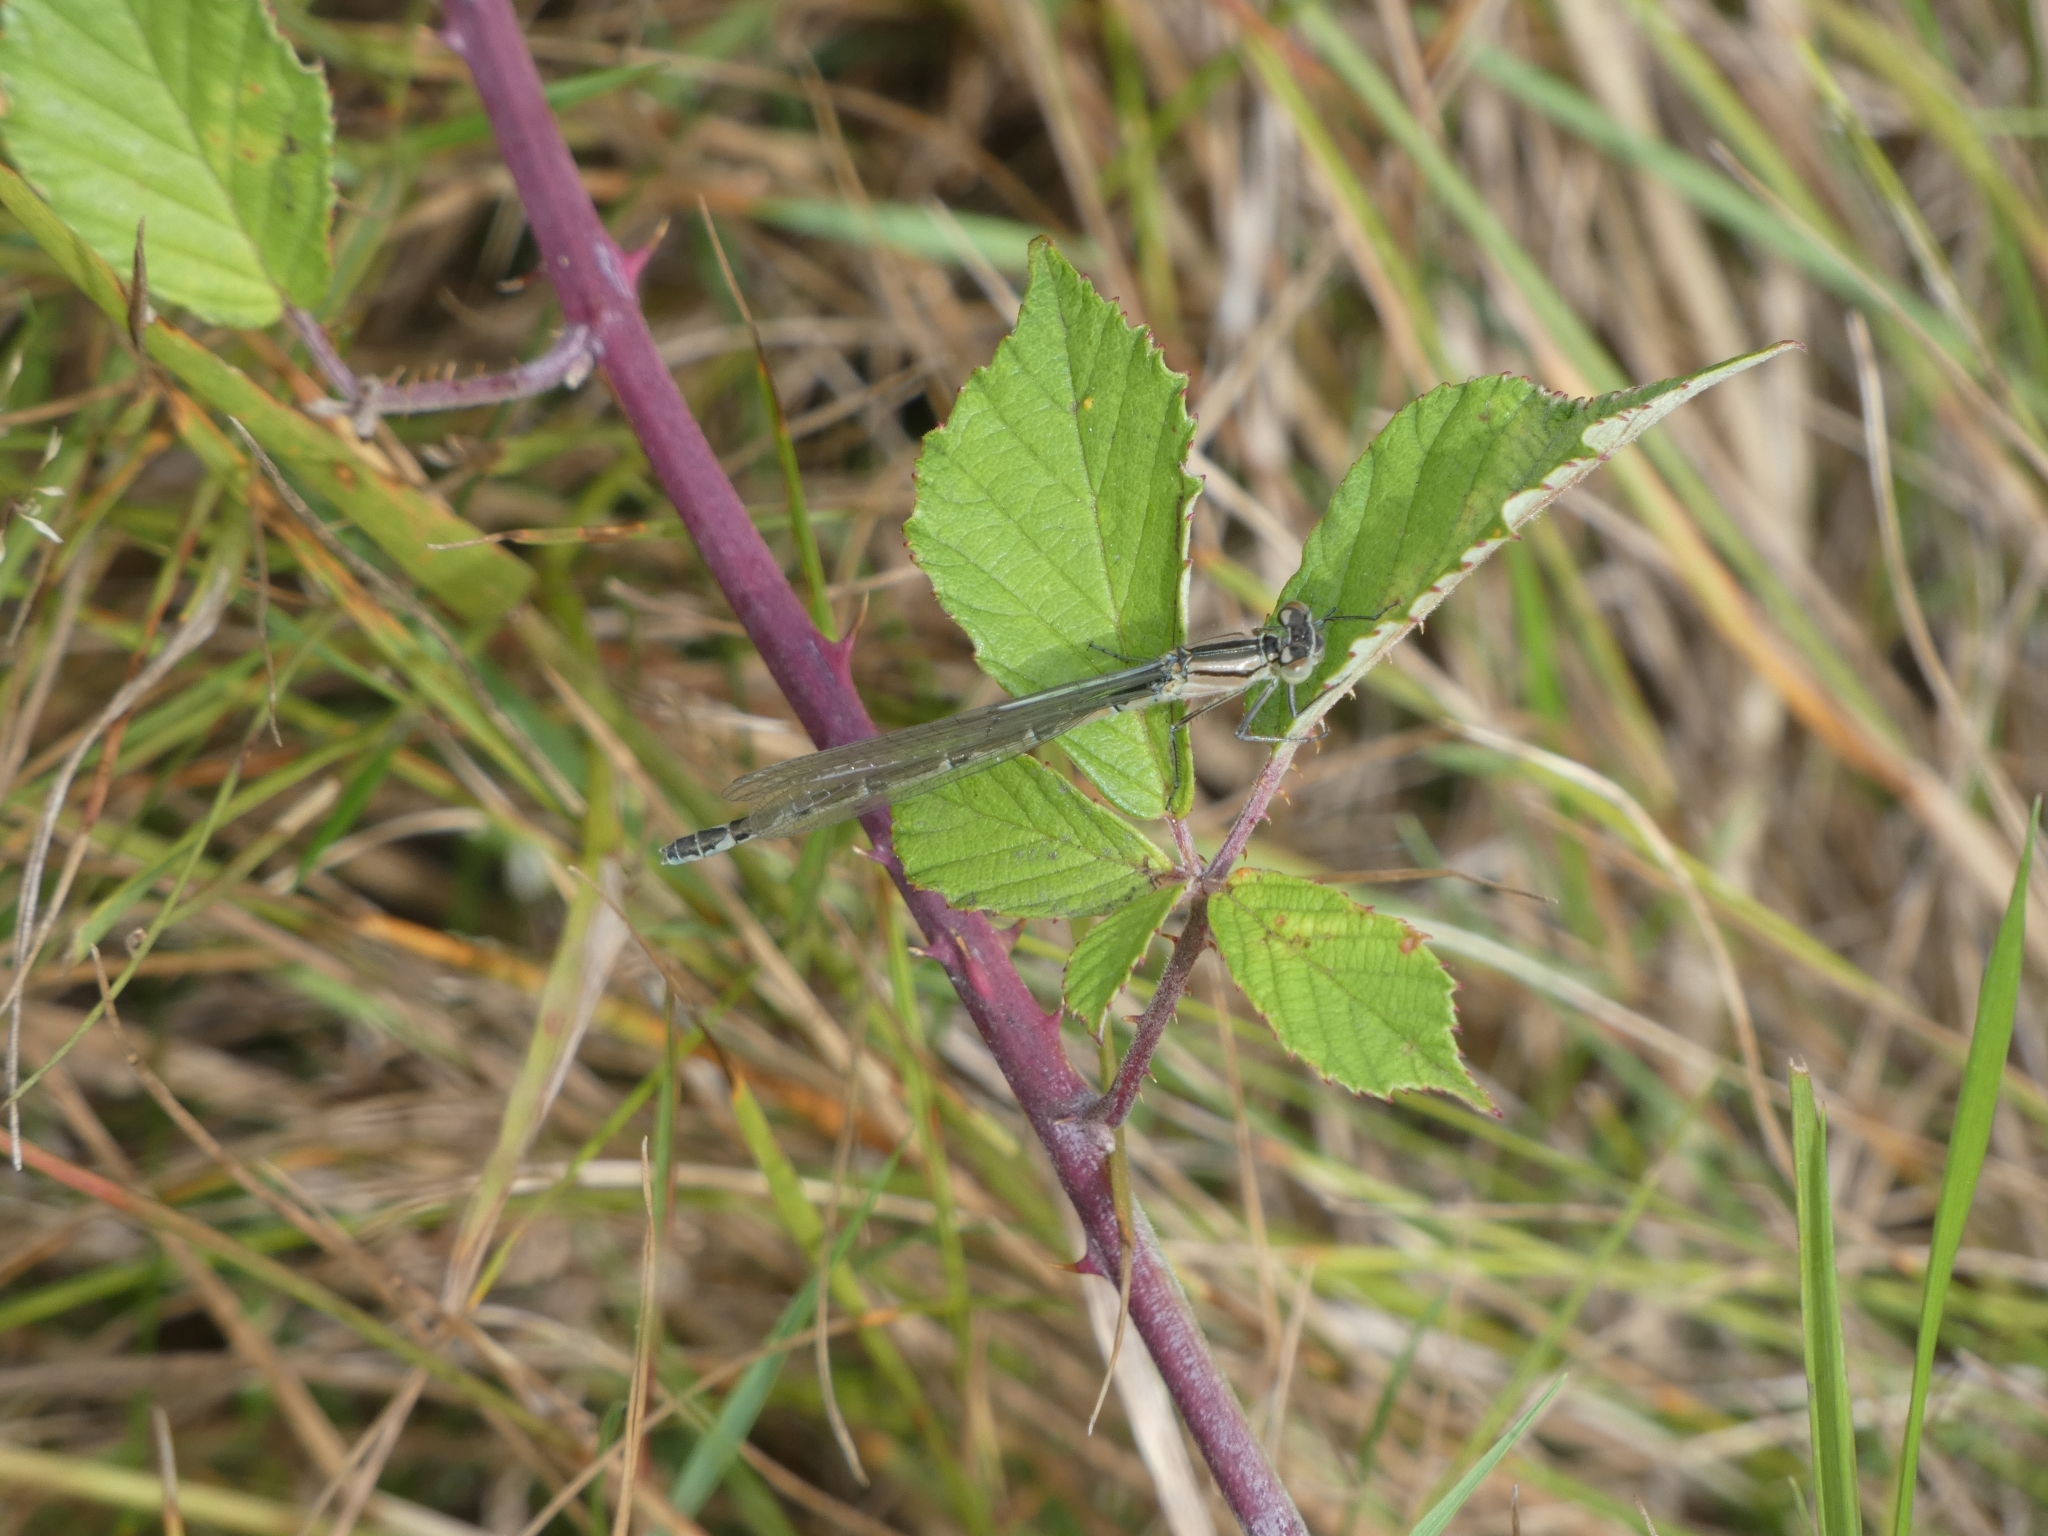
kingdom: Animalia
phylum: Arthropoda
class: Insecta
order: Odonata
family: Coenagrionidae
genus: Enallagma
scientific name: Enallagma cyathigerum
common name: Common blue damselfly
